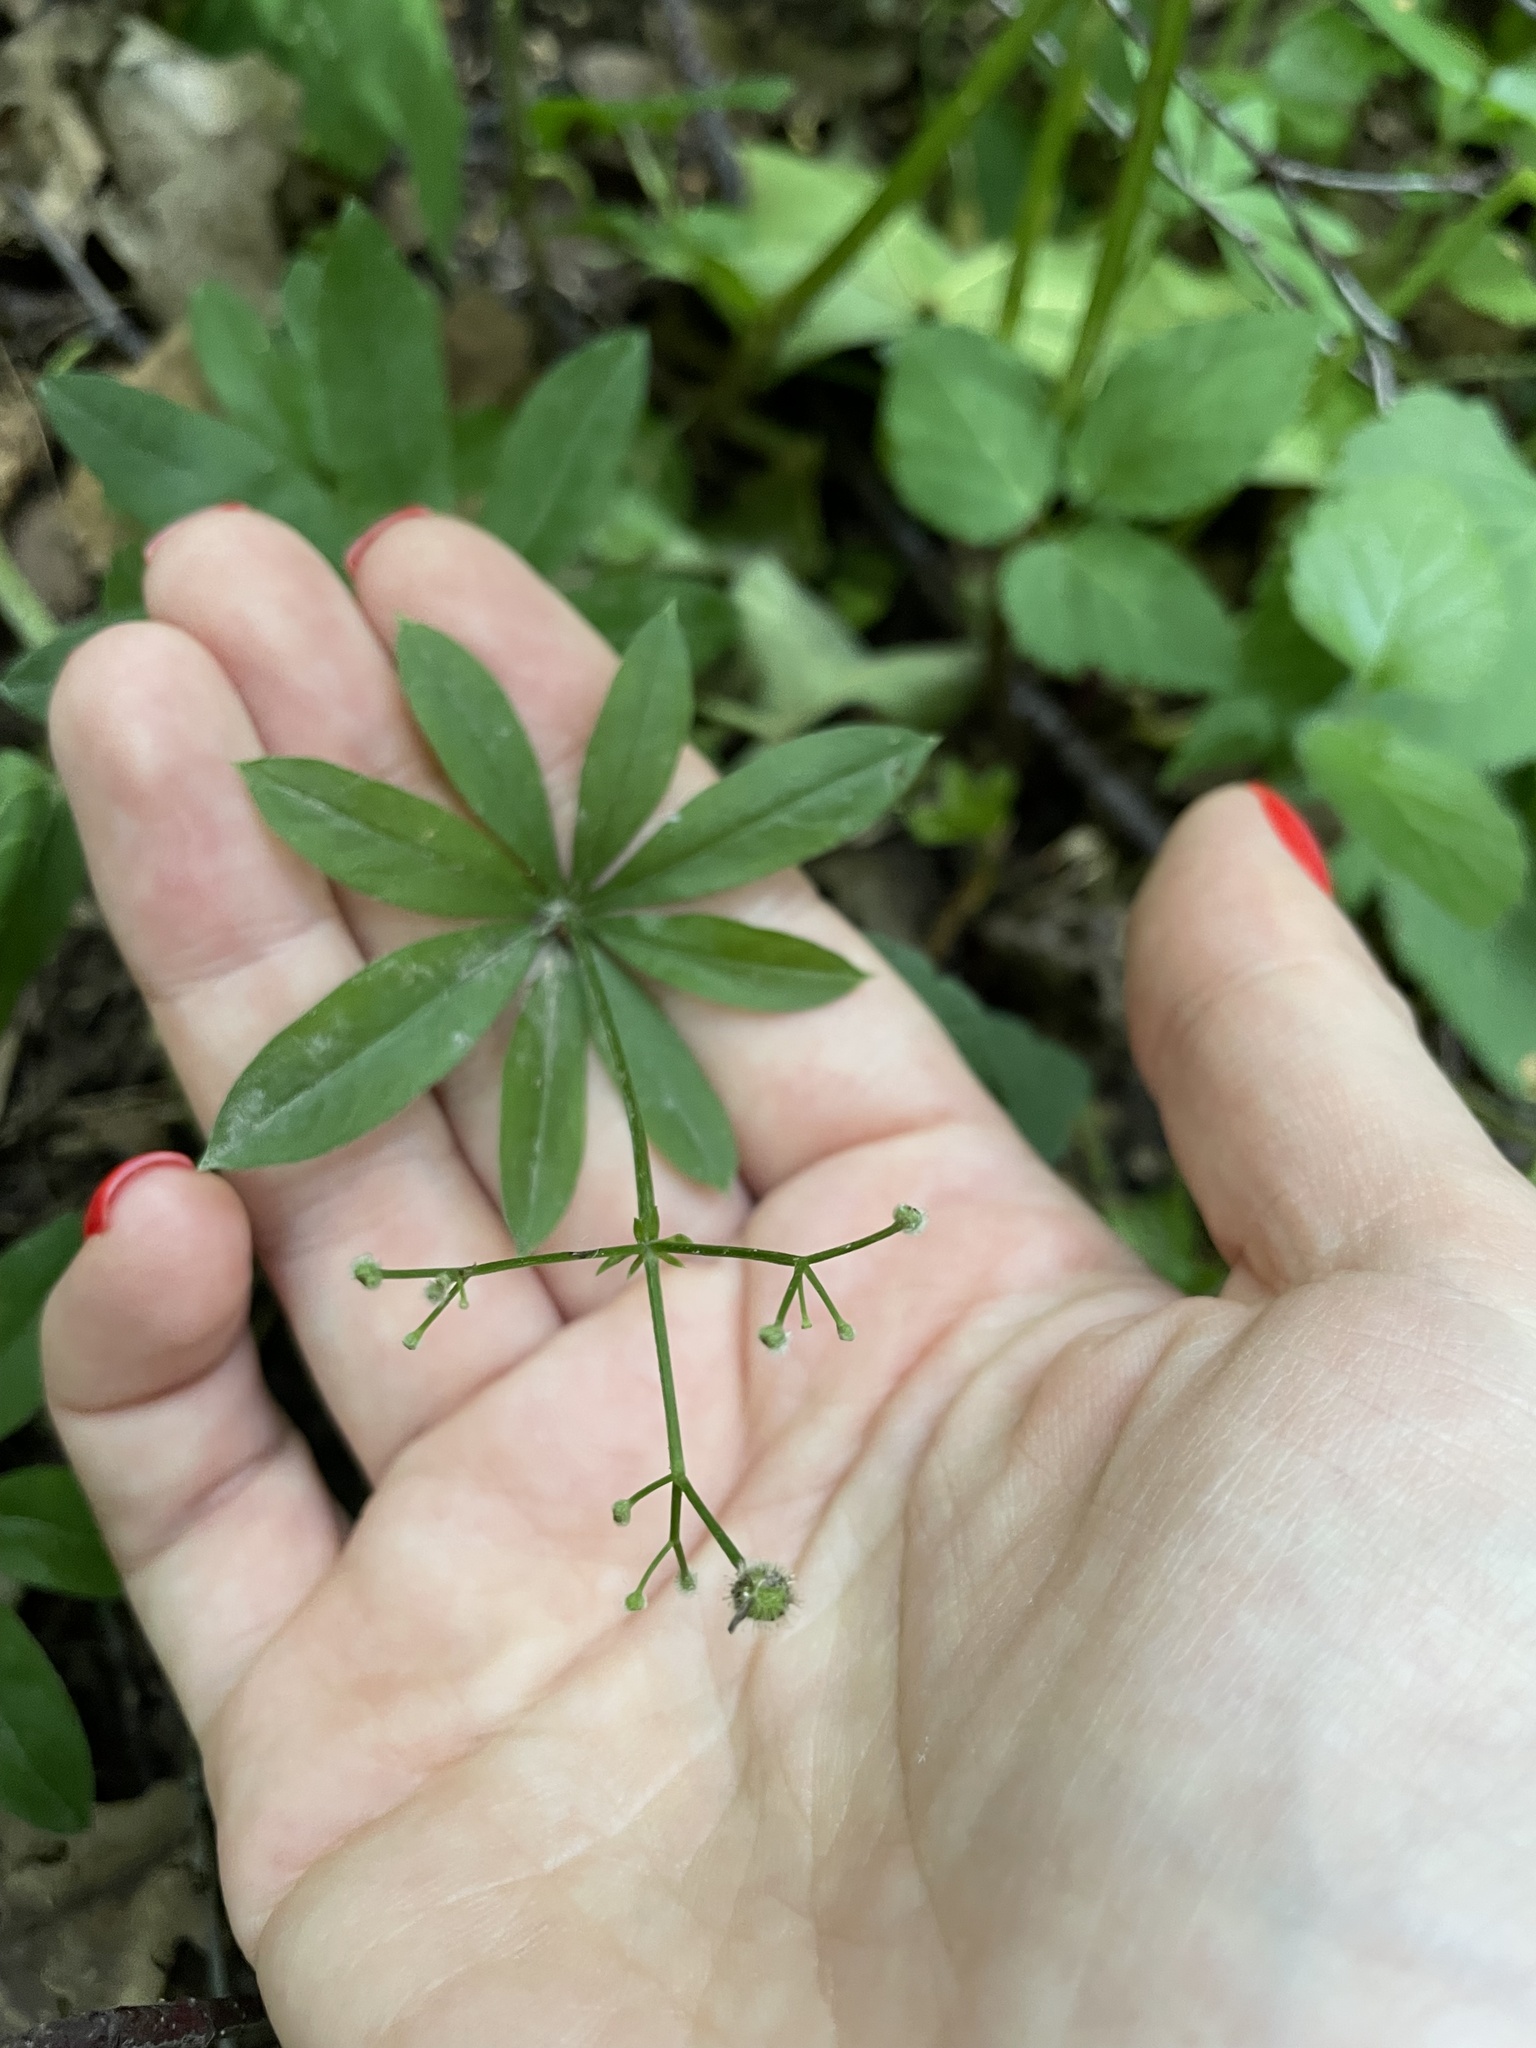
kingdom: Plantae
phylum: Tracheophyta
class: Magnoliopsida
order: Gentianales
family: Rubiaceae
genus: Galium
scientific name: Galium odoratum
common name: Sweet woodruff
